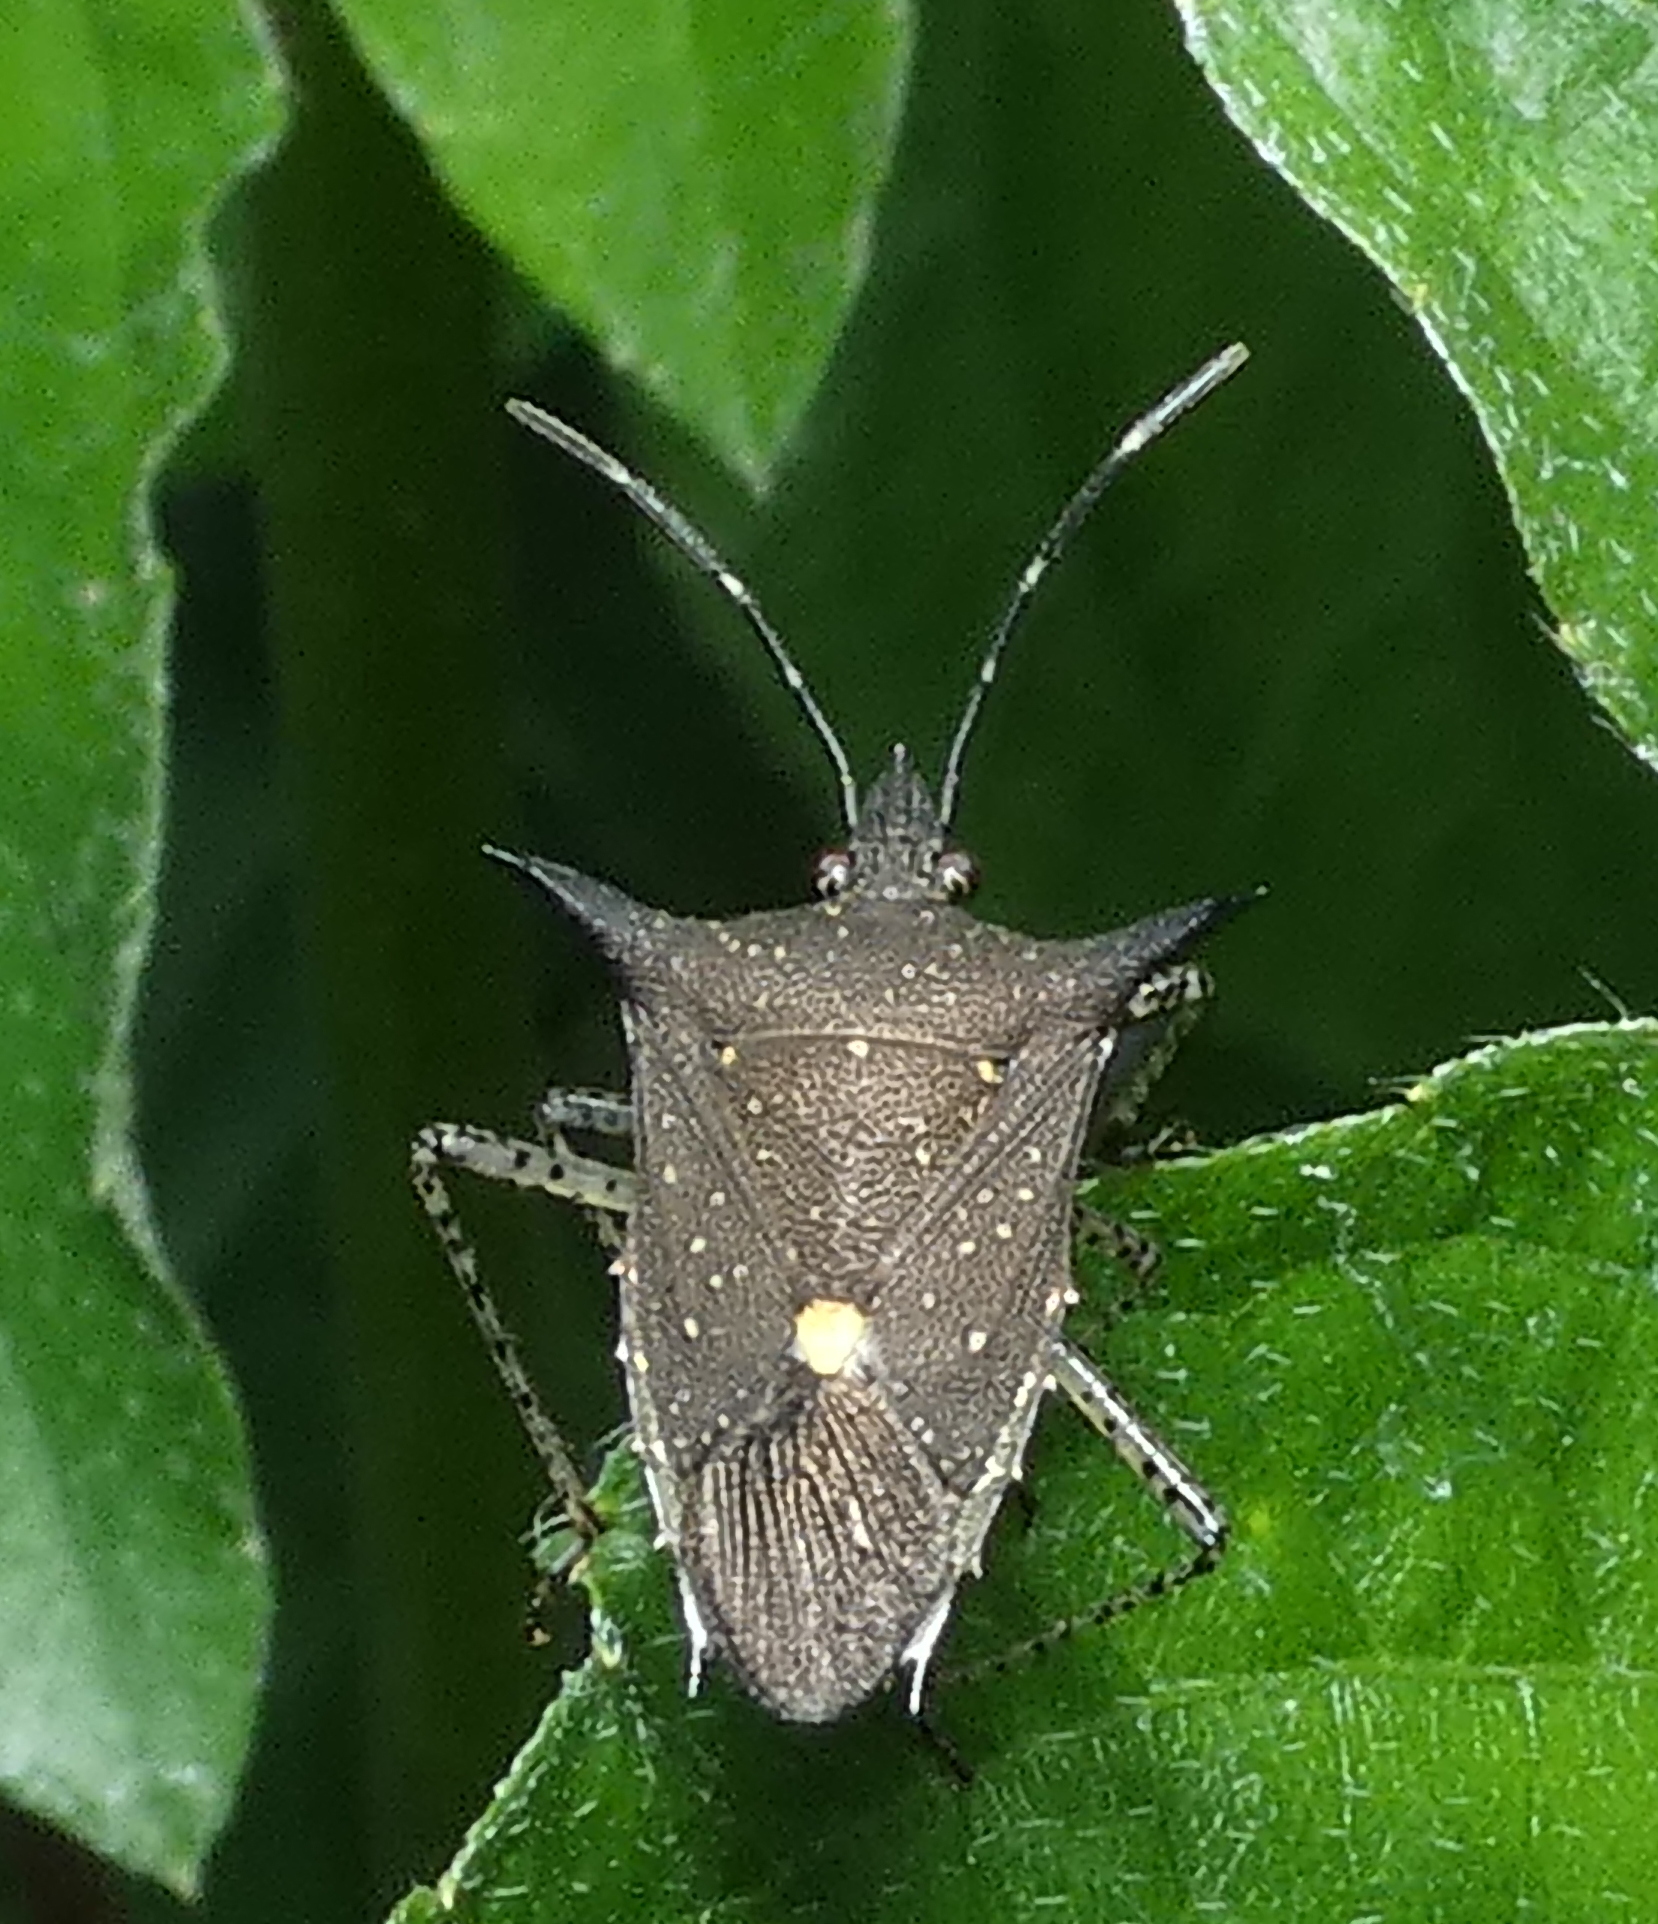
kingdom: Animalia
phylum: Arthropoda
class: Insecta
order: Hemiptera
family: Pentatomidae
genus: Proxys
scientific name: Proxys albopunctulatus
